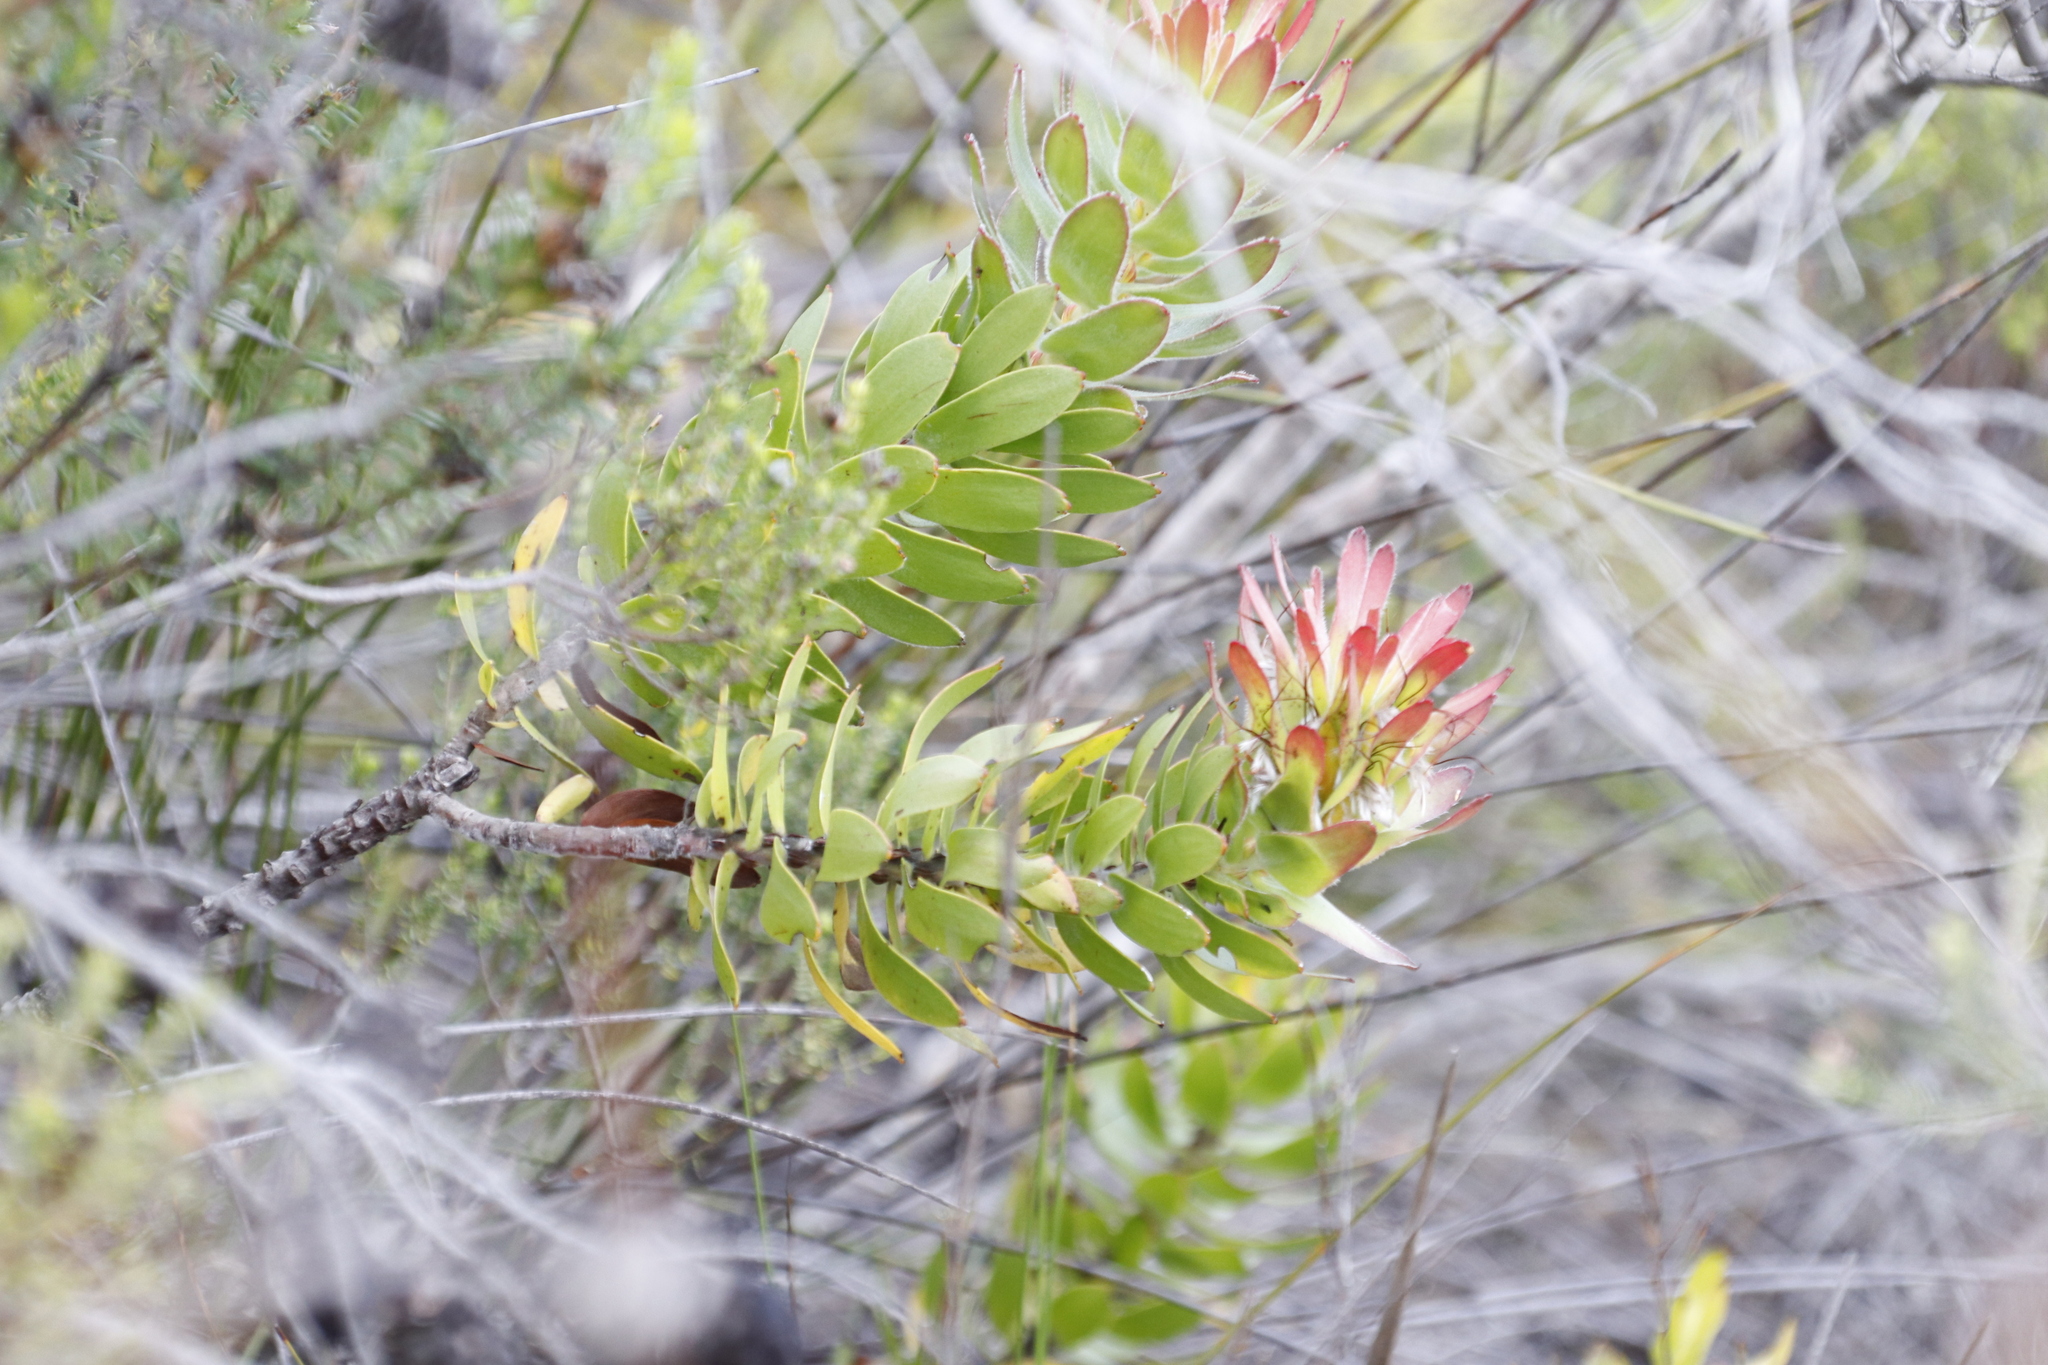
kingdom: Plantae
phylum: Tracheophyta
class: Magnoliopsida
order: Proteales
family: Proteaceae
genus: Mimetes
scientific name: Mimetes cucullatus
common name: Common pagoda
